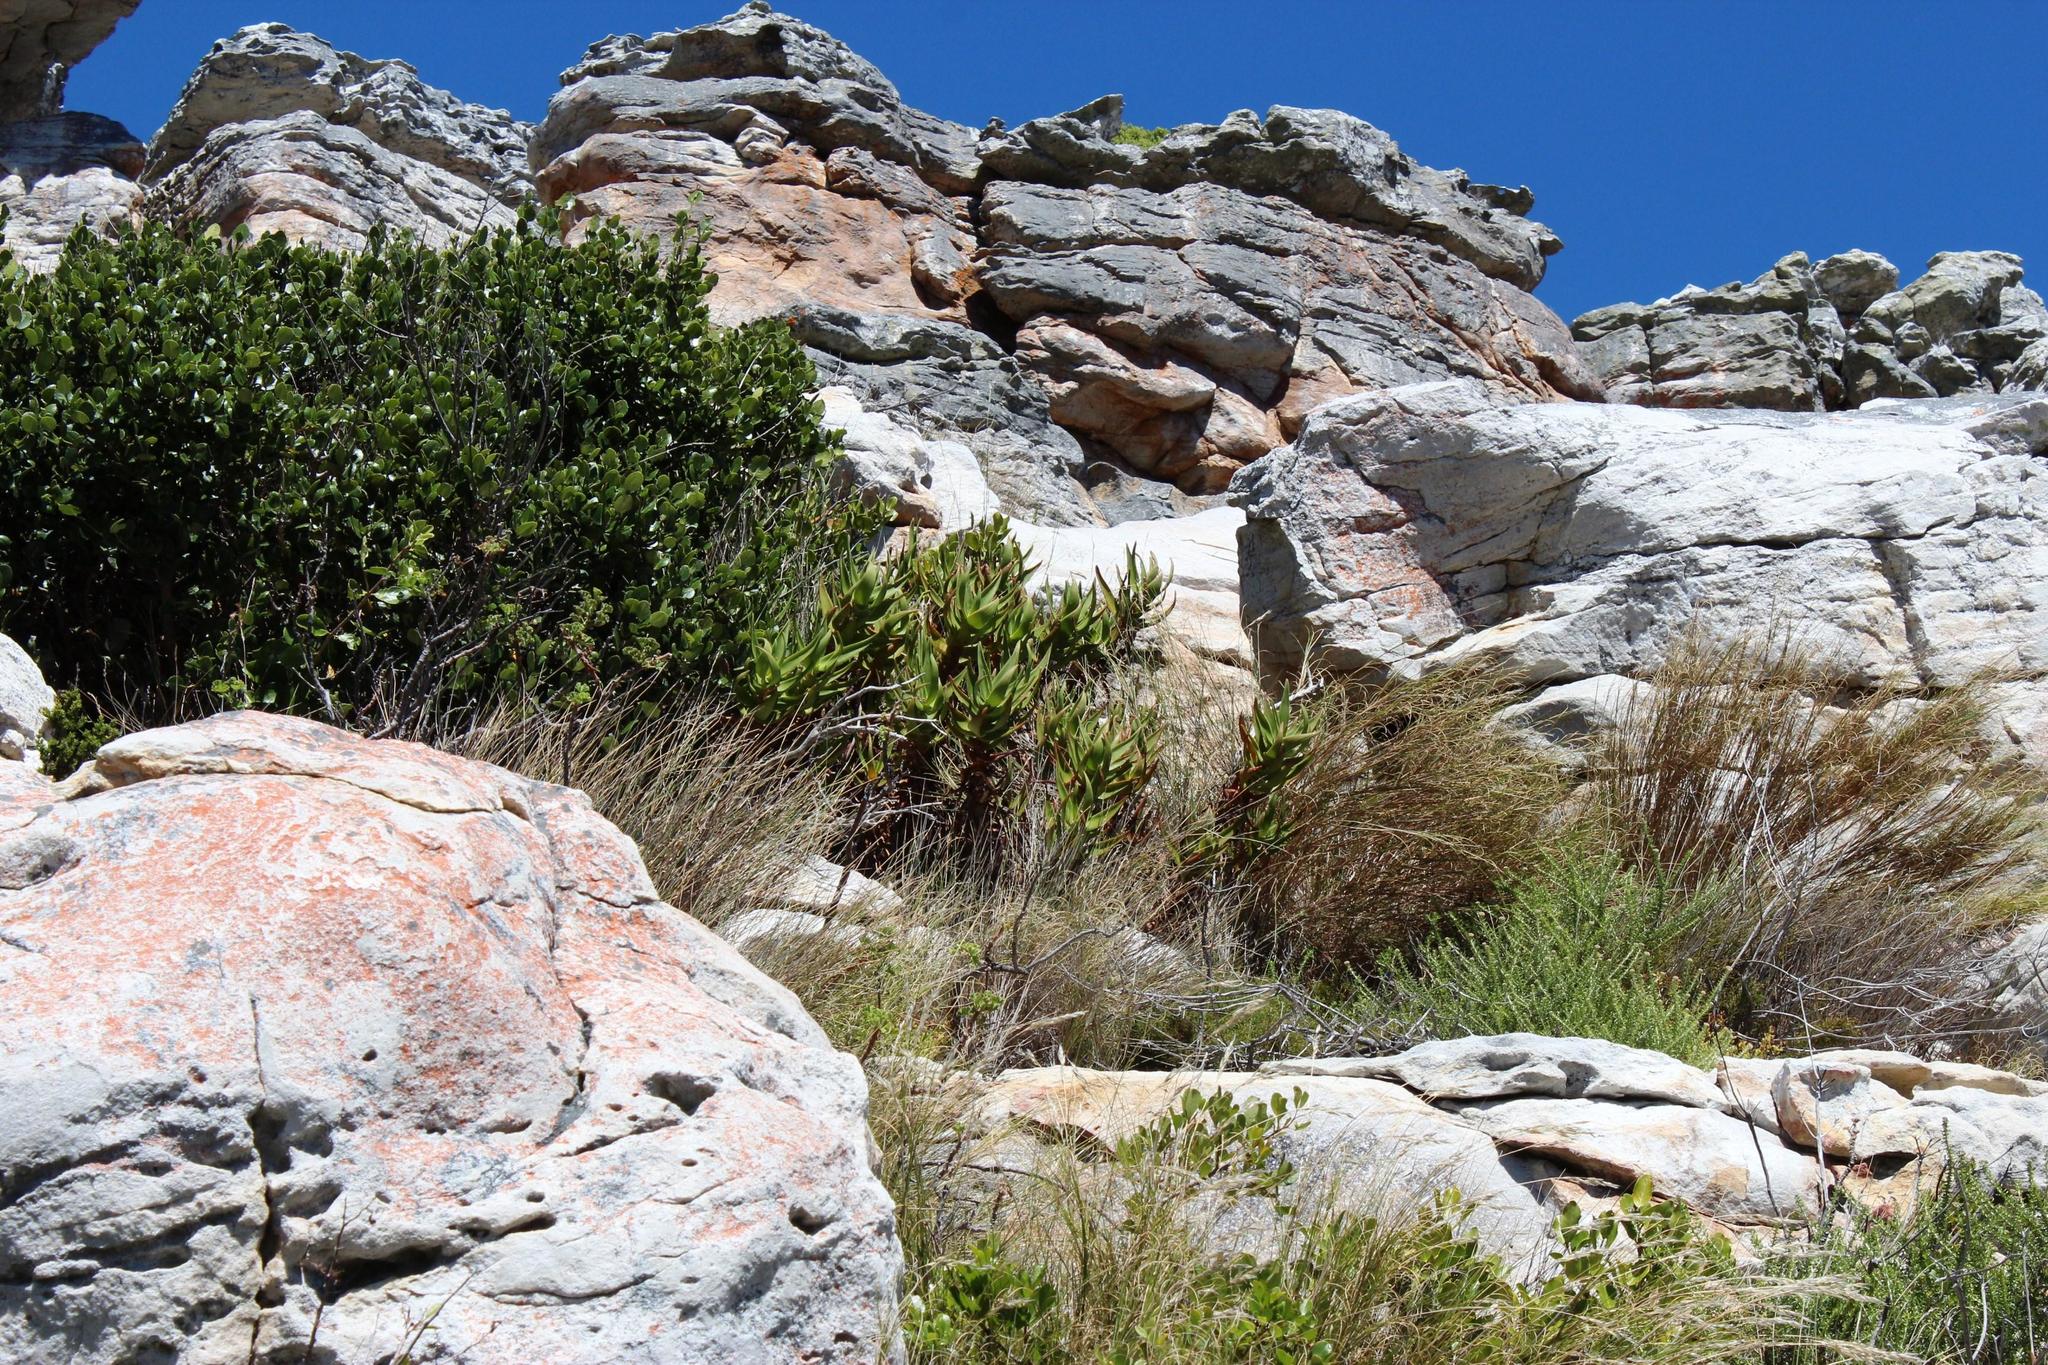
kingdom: Plantae
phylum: Tracheophyta
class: Liliopsida
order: Asparagales
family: Asphodelaceae
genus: Aloiampelos
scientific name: Aloiampelos commixta
